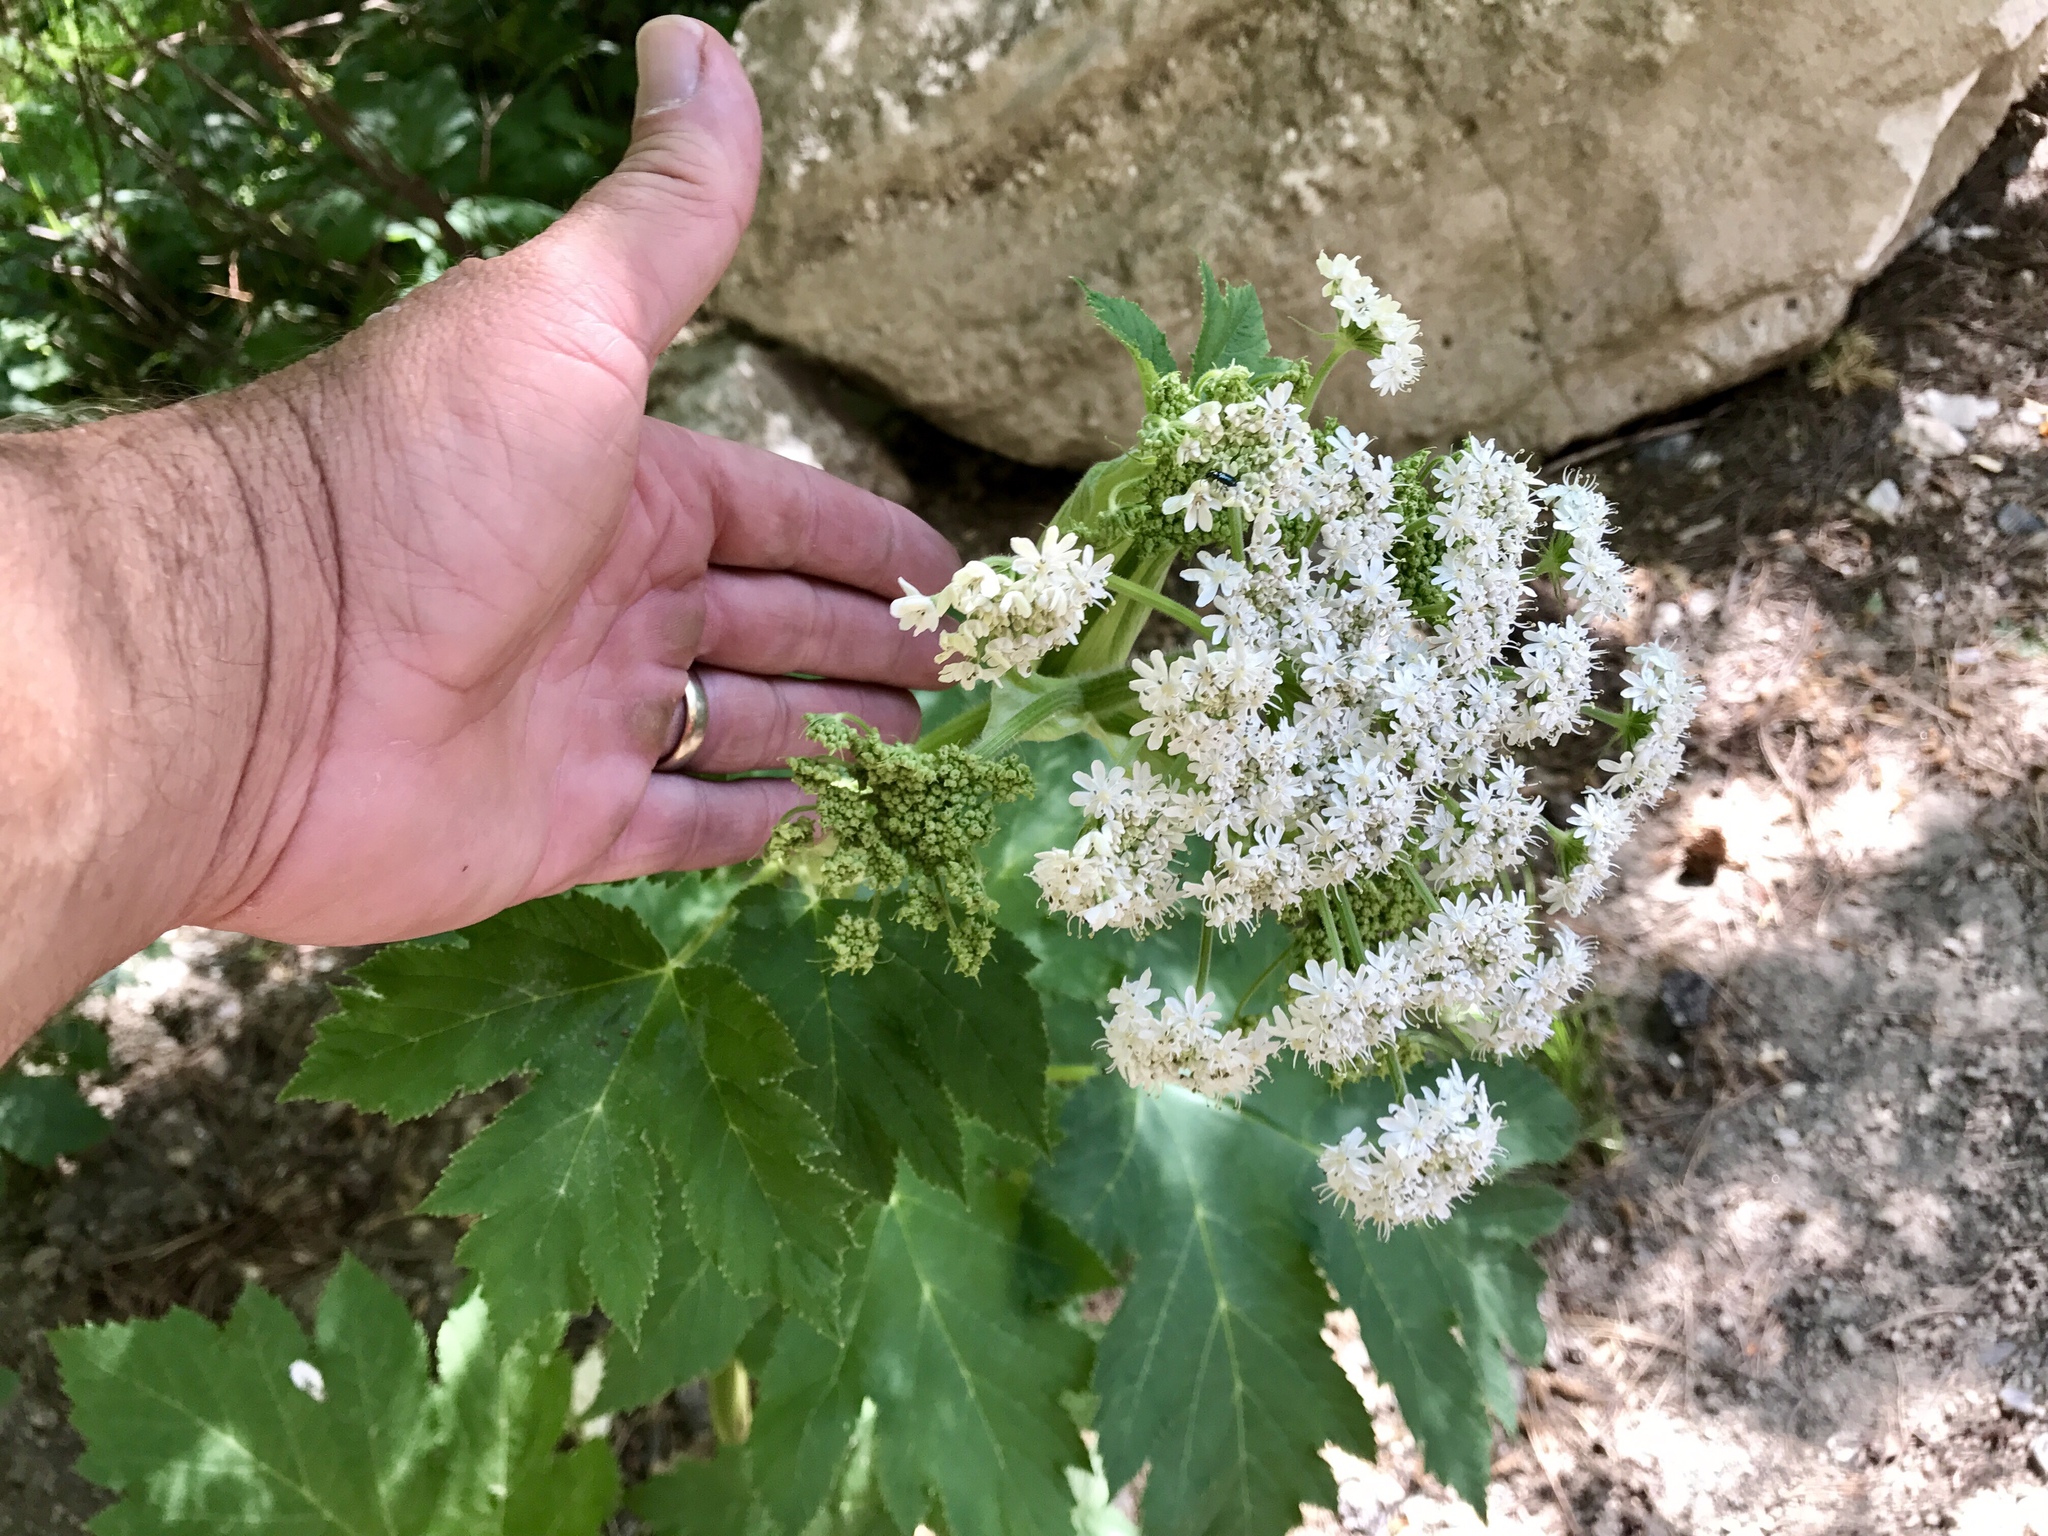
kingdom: Plantae
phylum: Tracheophyta
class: Magnoliopsida
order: Apiales
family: Apiaceae
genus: Heracleum
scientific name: Heracleum maximum
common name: American cow parsnip
